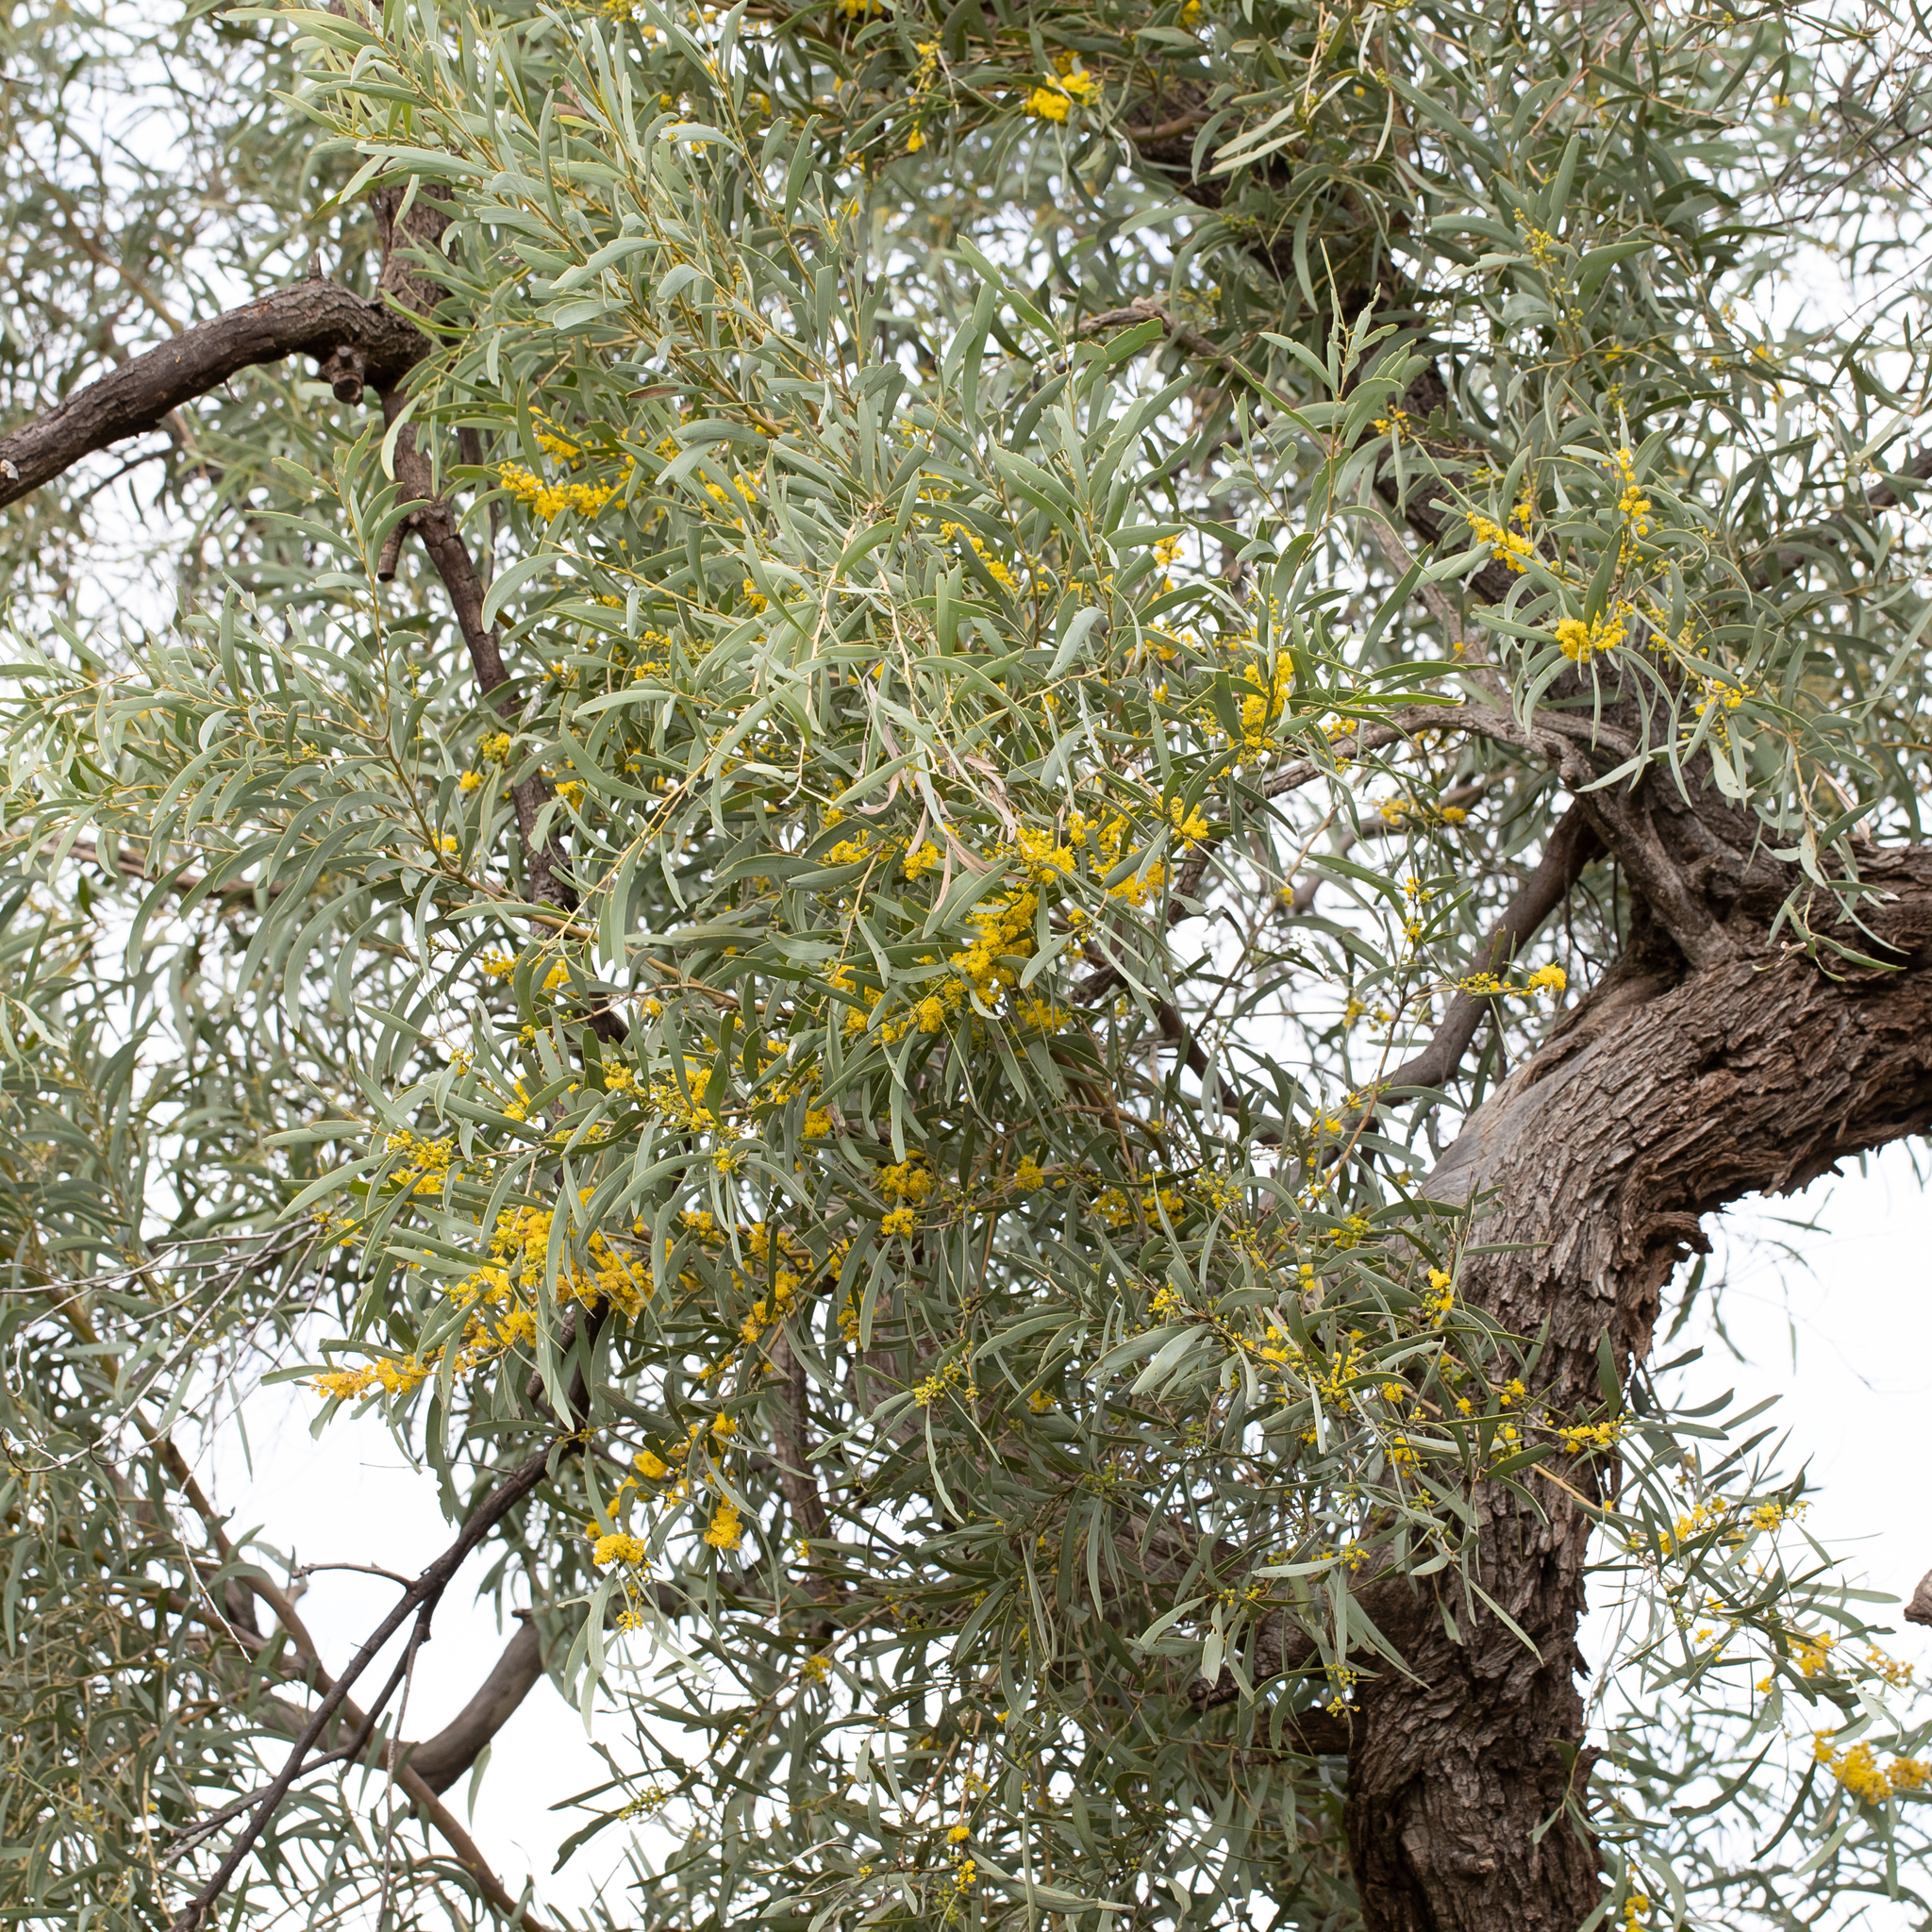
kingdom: Plantae
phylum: Tracheophyta
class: Magnoliopsida
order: Fabales
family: Fabaceae
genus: Acacia
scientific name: Acacia cambagei
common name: Gidgee
